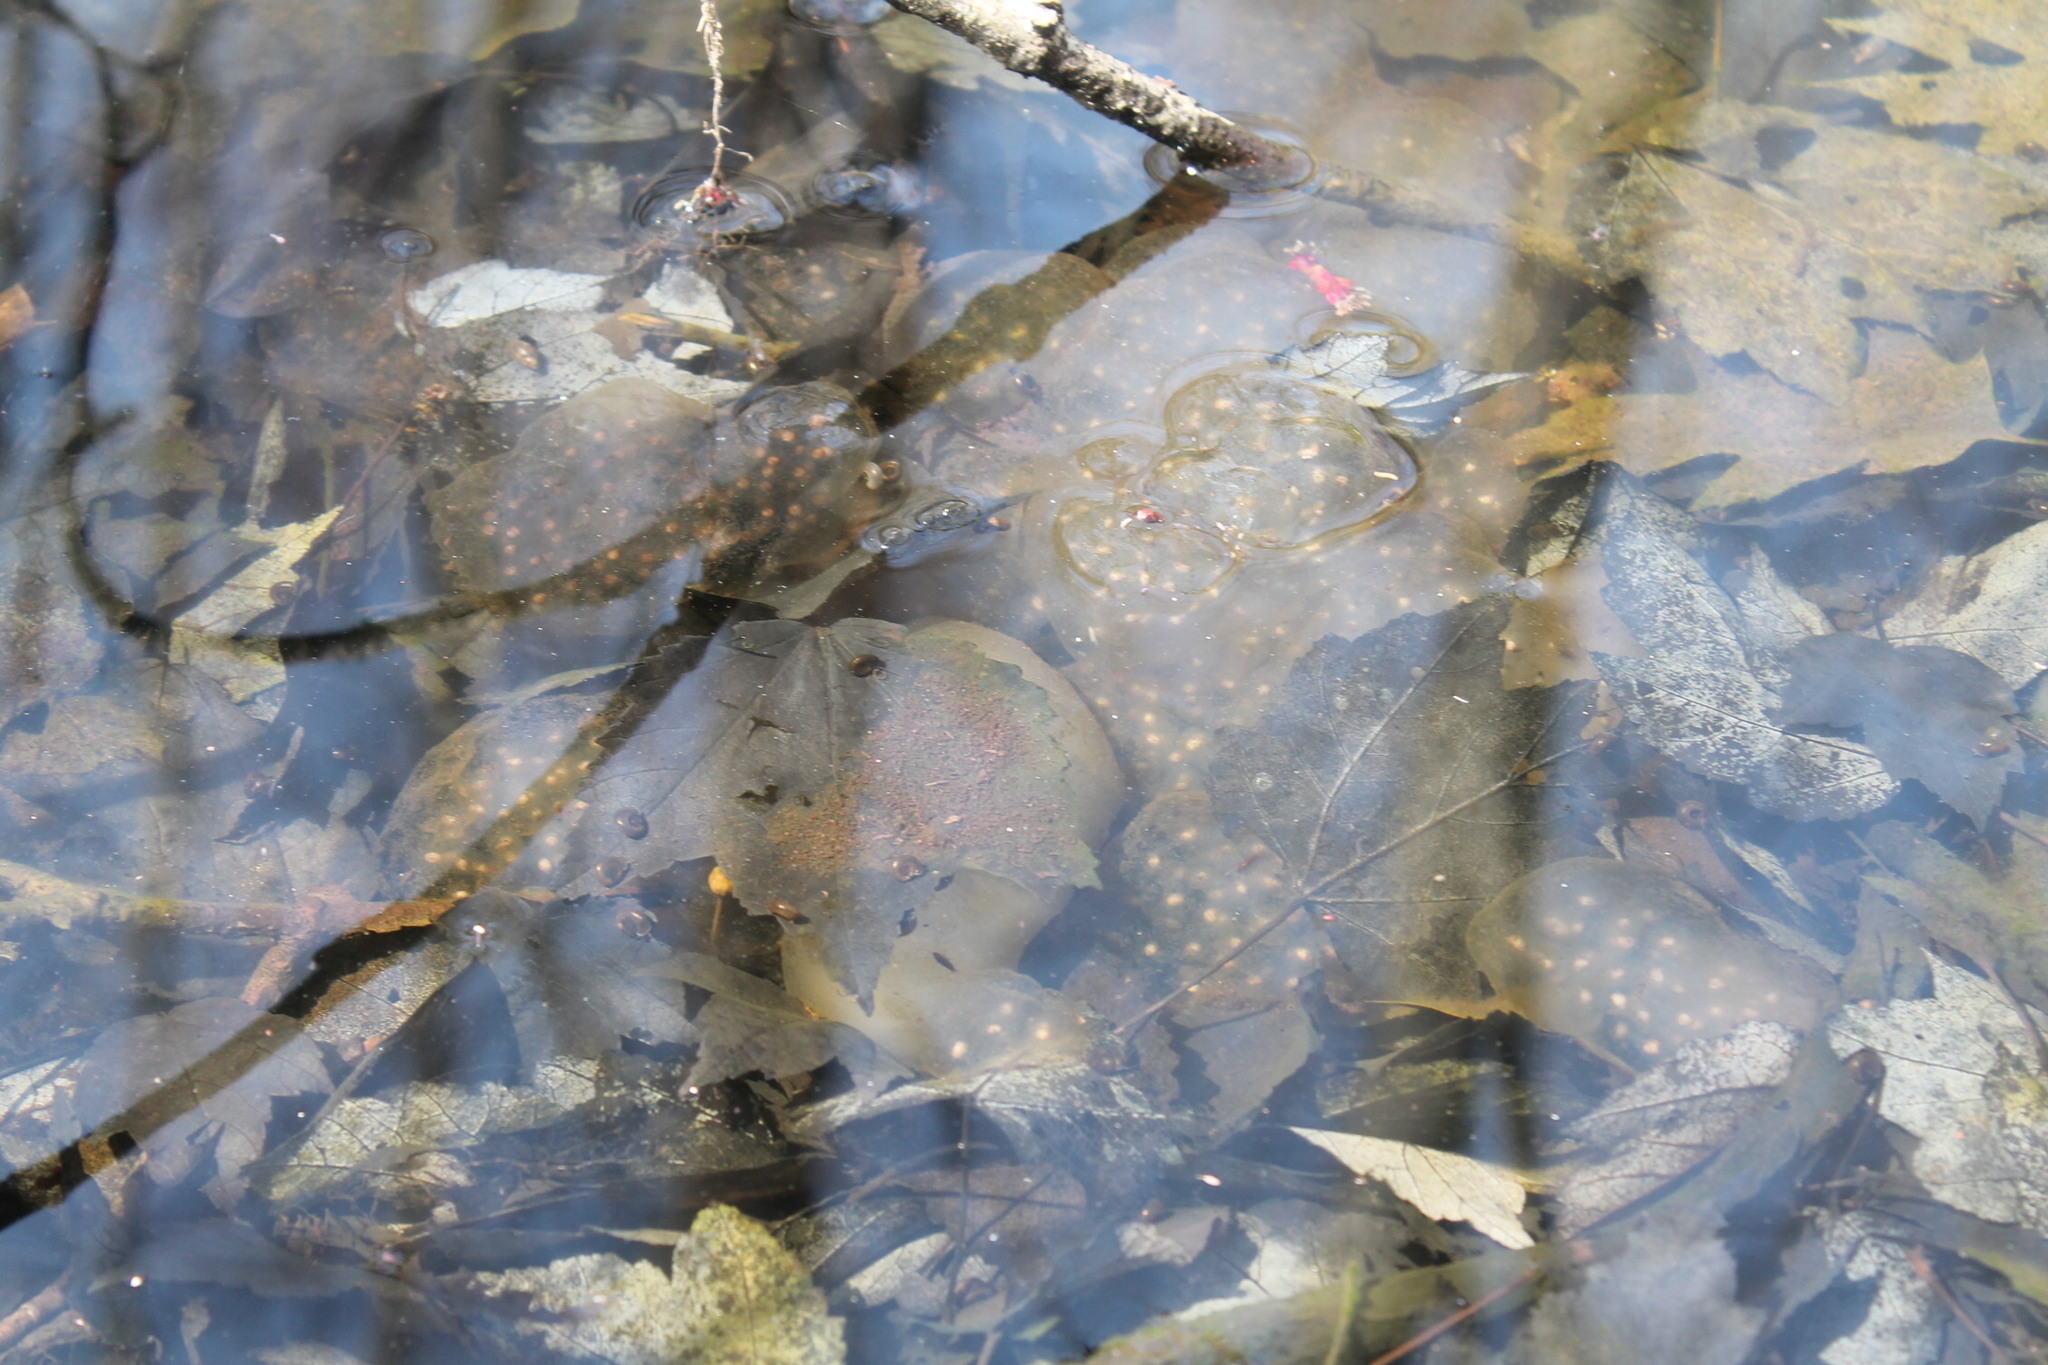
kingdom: Animalia
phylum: Chordata
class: Amphibia
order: Caudata
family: Ambystomatidae
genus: Ambystoma
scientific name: Ambystoma maculatum
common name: Spotted salamander
